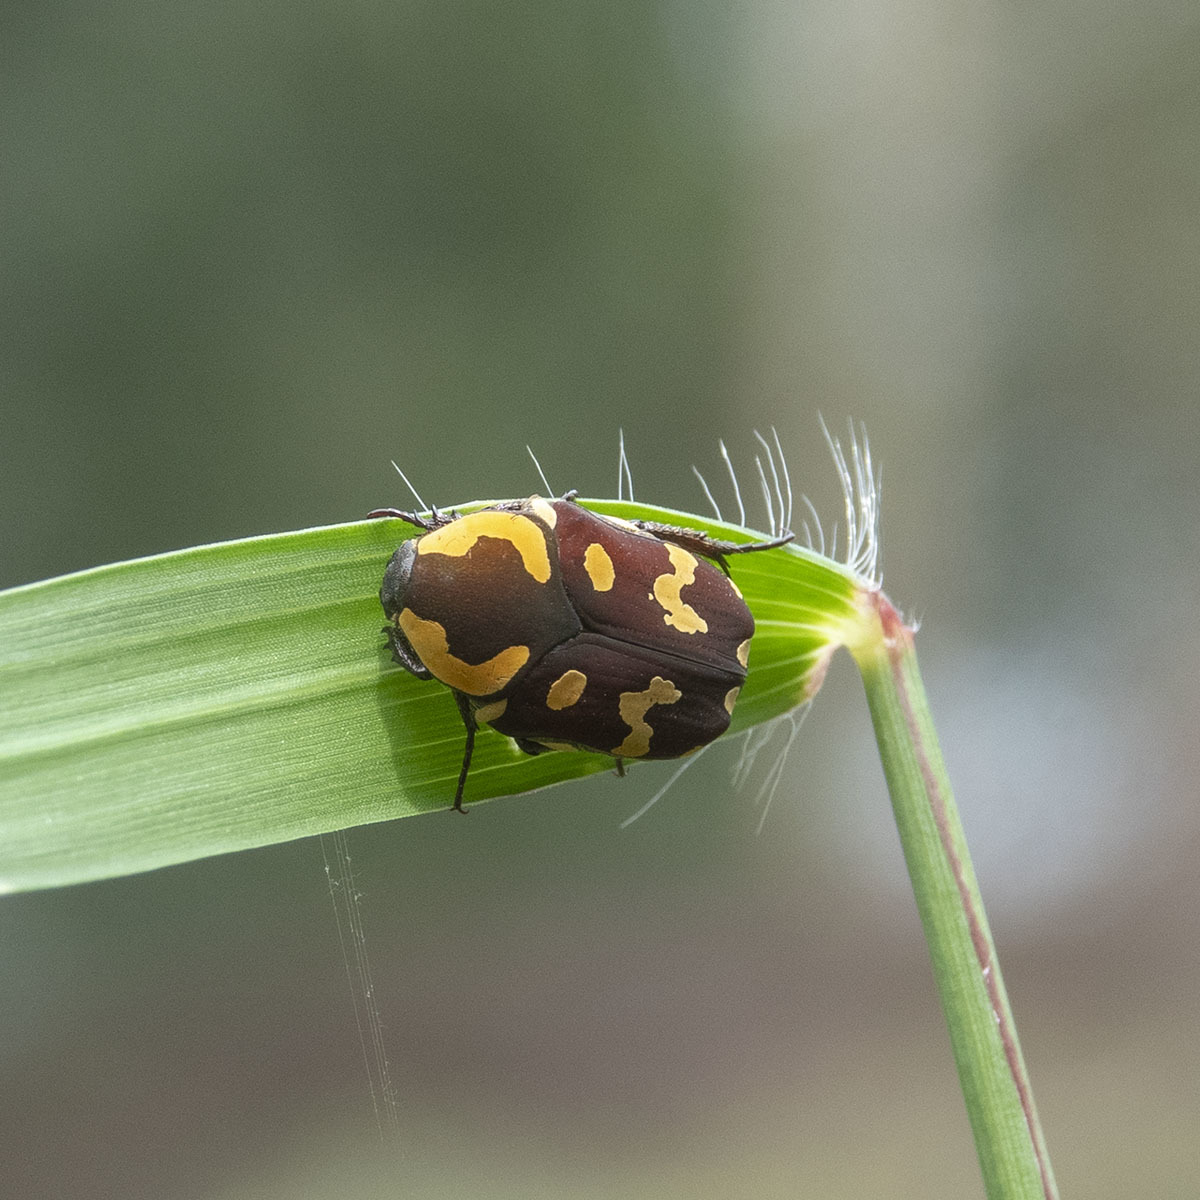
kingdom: Animalia
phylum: Arthropoda
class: Insecta
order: Coleoptera
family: Scarabaeidae
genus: Clinteria
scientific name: Clinteria klugi
